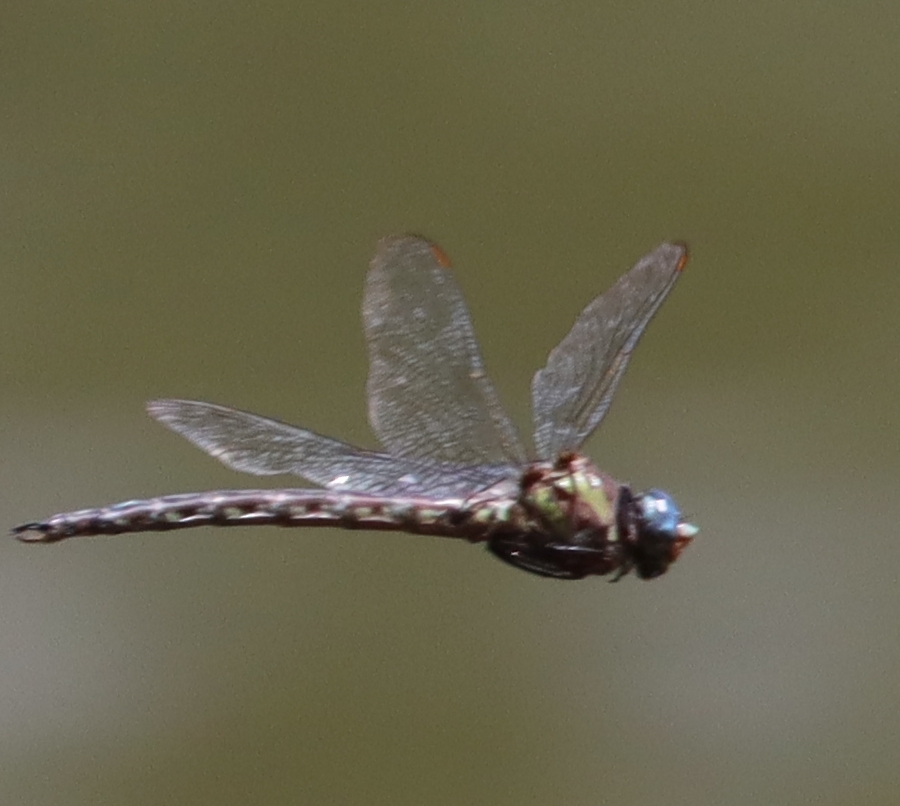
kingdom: Animalia
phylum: Arthropoda
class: Insecta
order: Odonata
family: Aeshnidae
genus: Nasiaeschna
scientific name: Nasiaeschna pentacantha
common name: Cyrano darner
